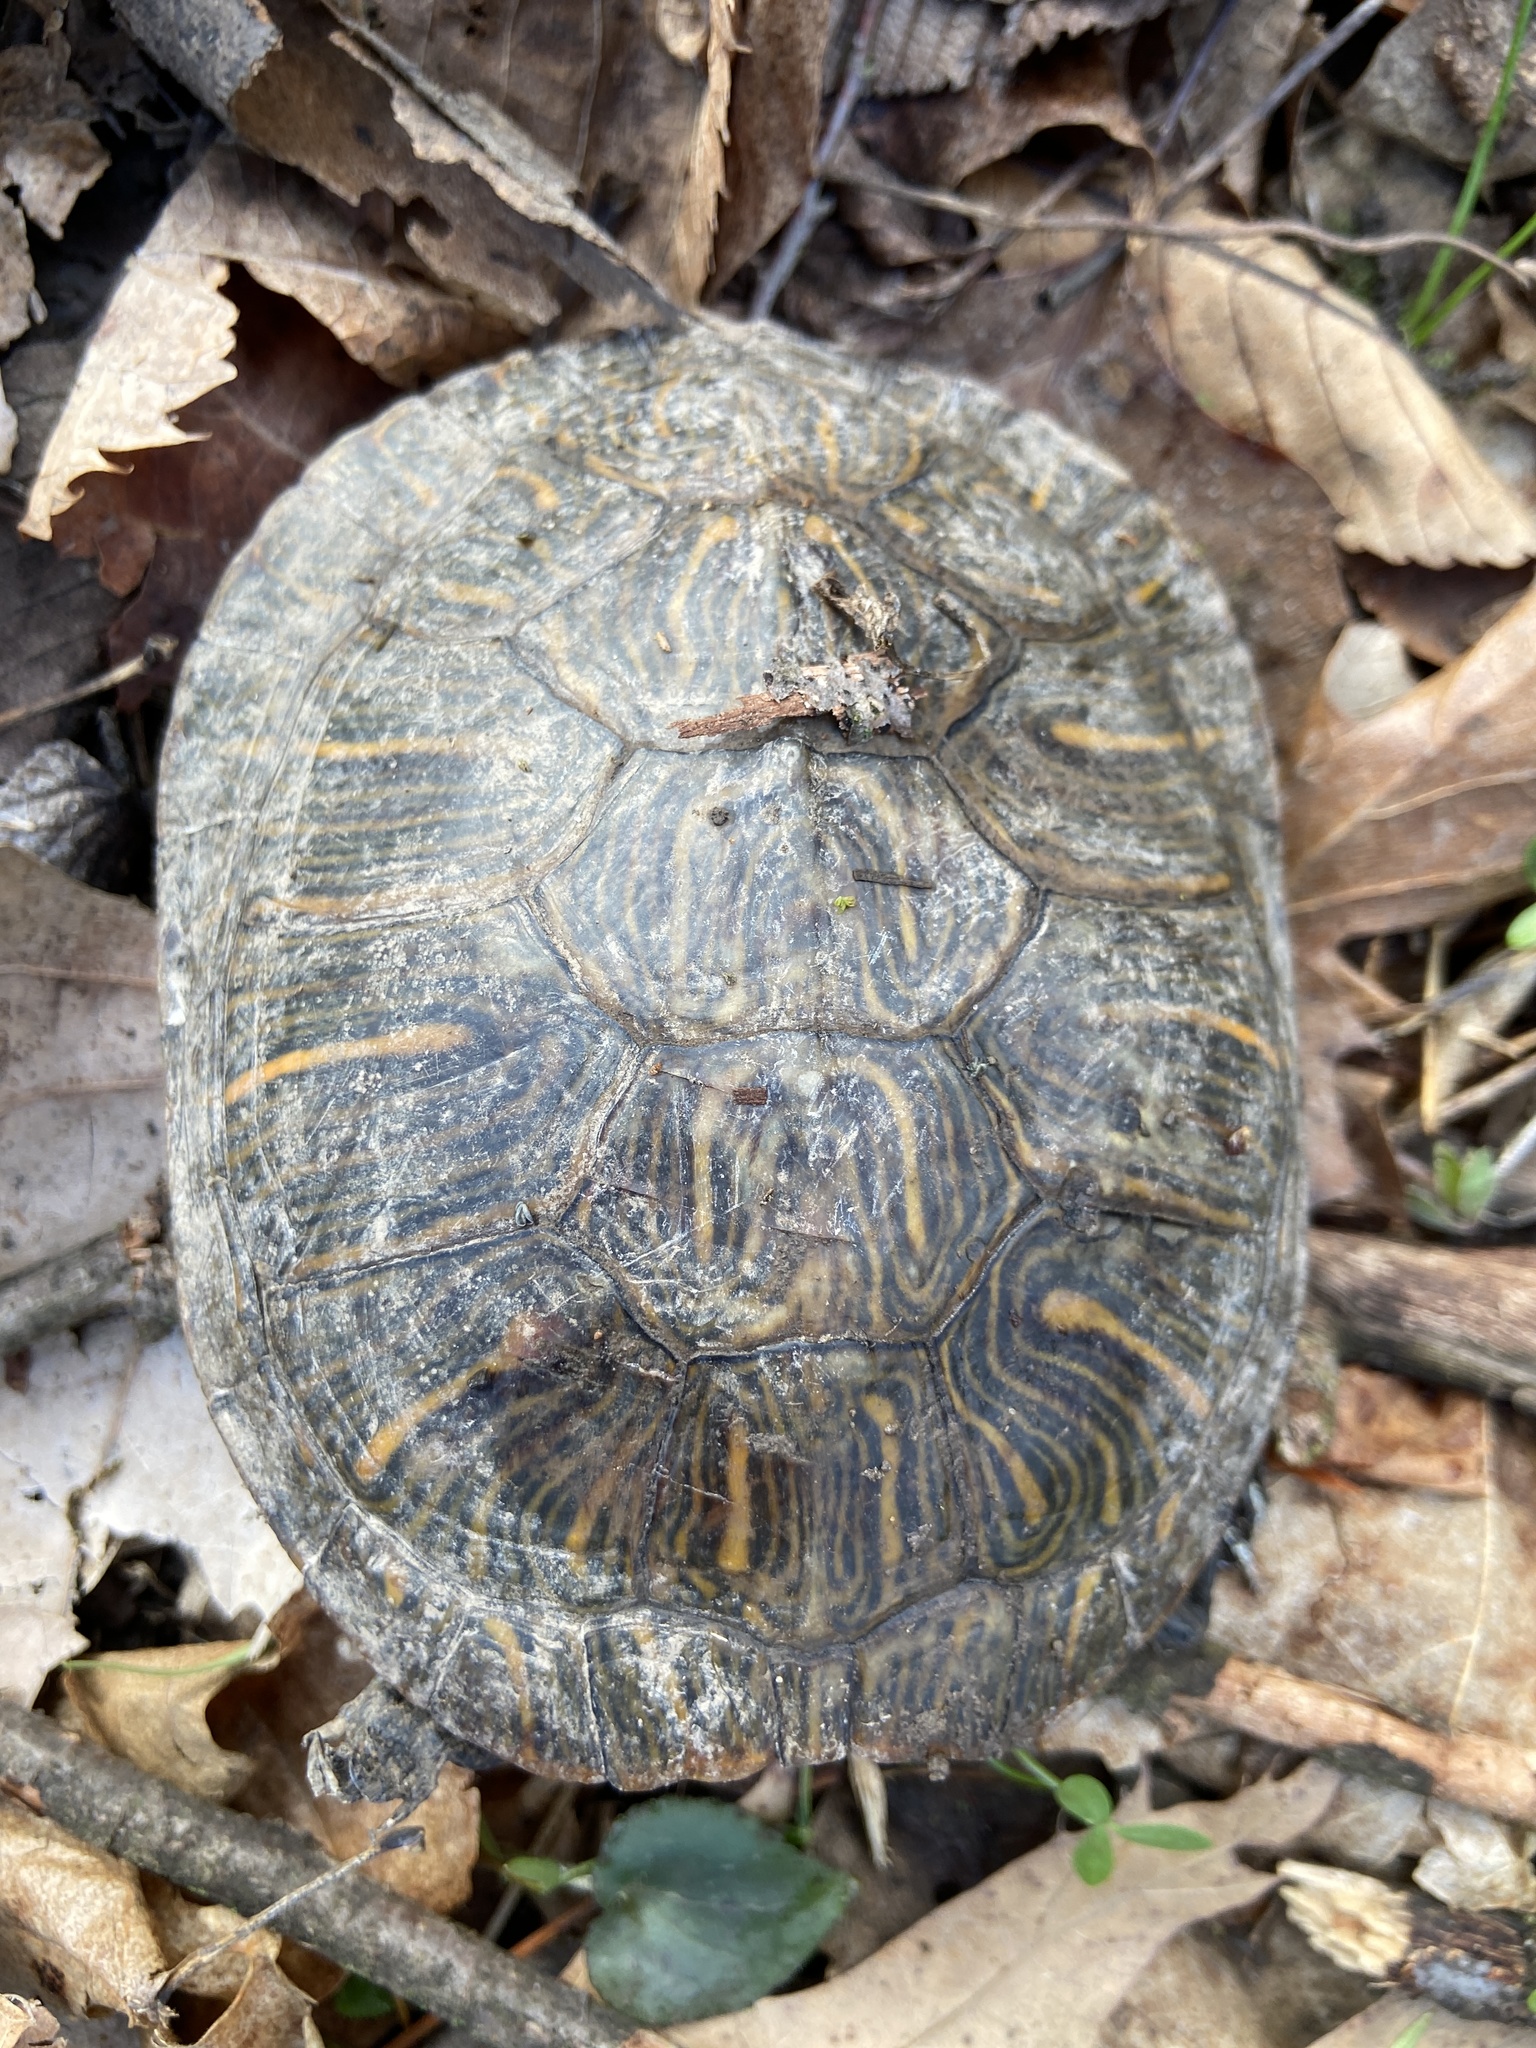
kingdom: Animalia
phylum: Chordata
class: Testudines
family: Emydidae
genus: Trachemys
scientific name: Trachemys scripta
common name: Slider
